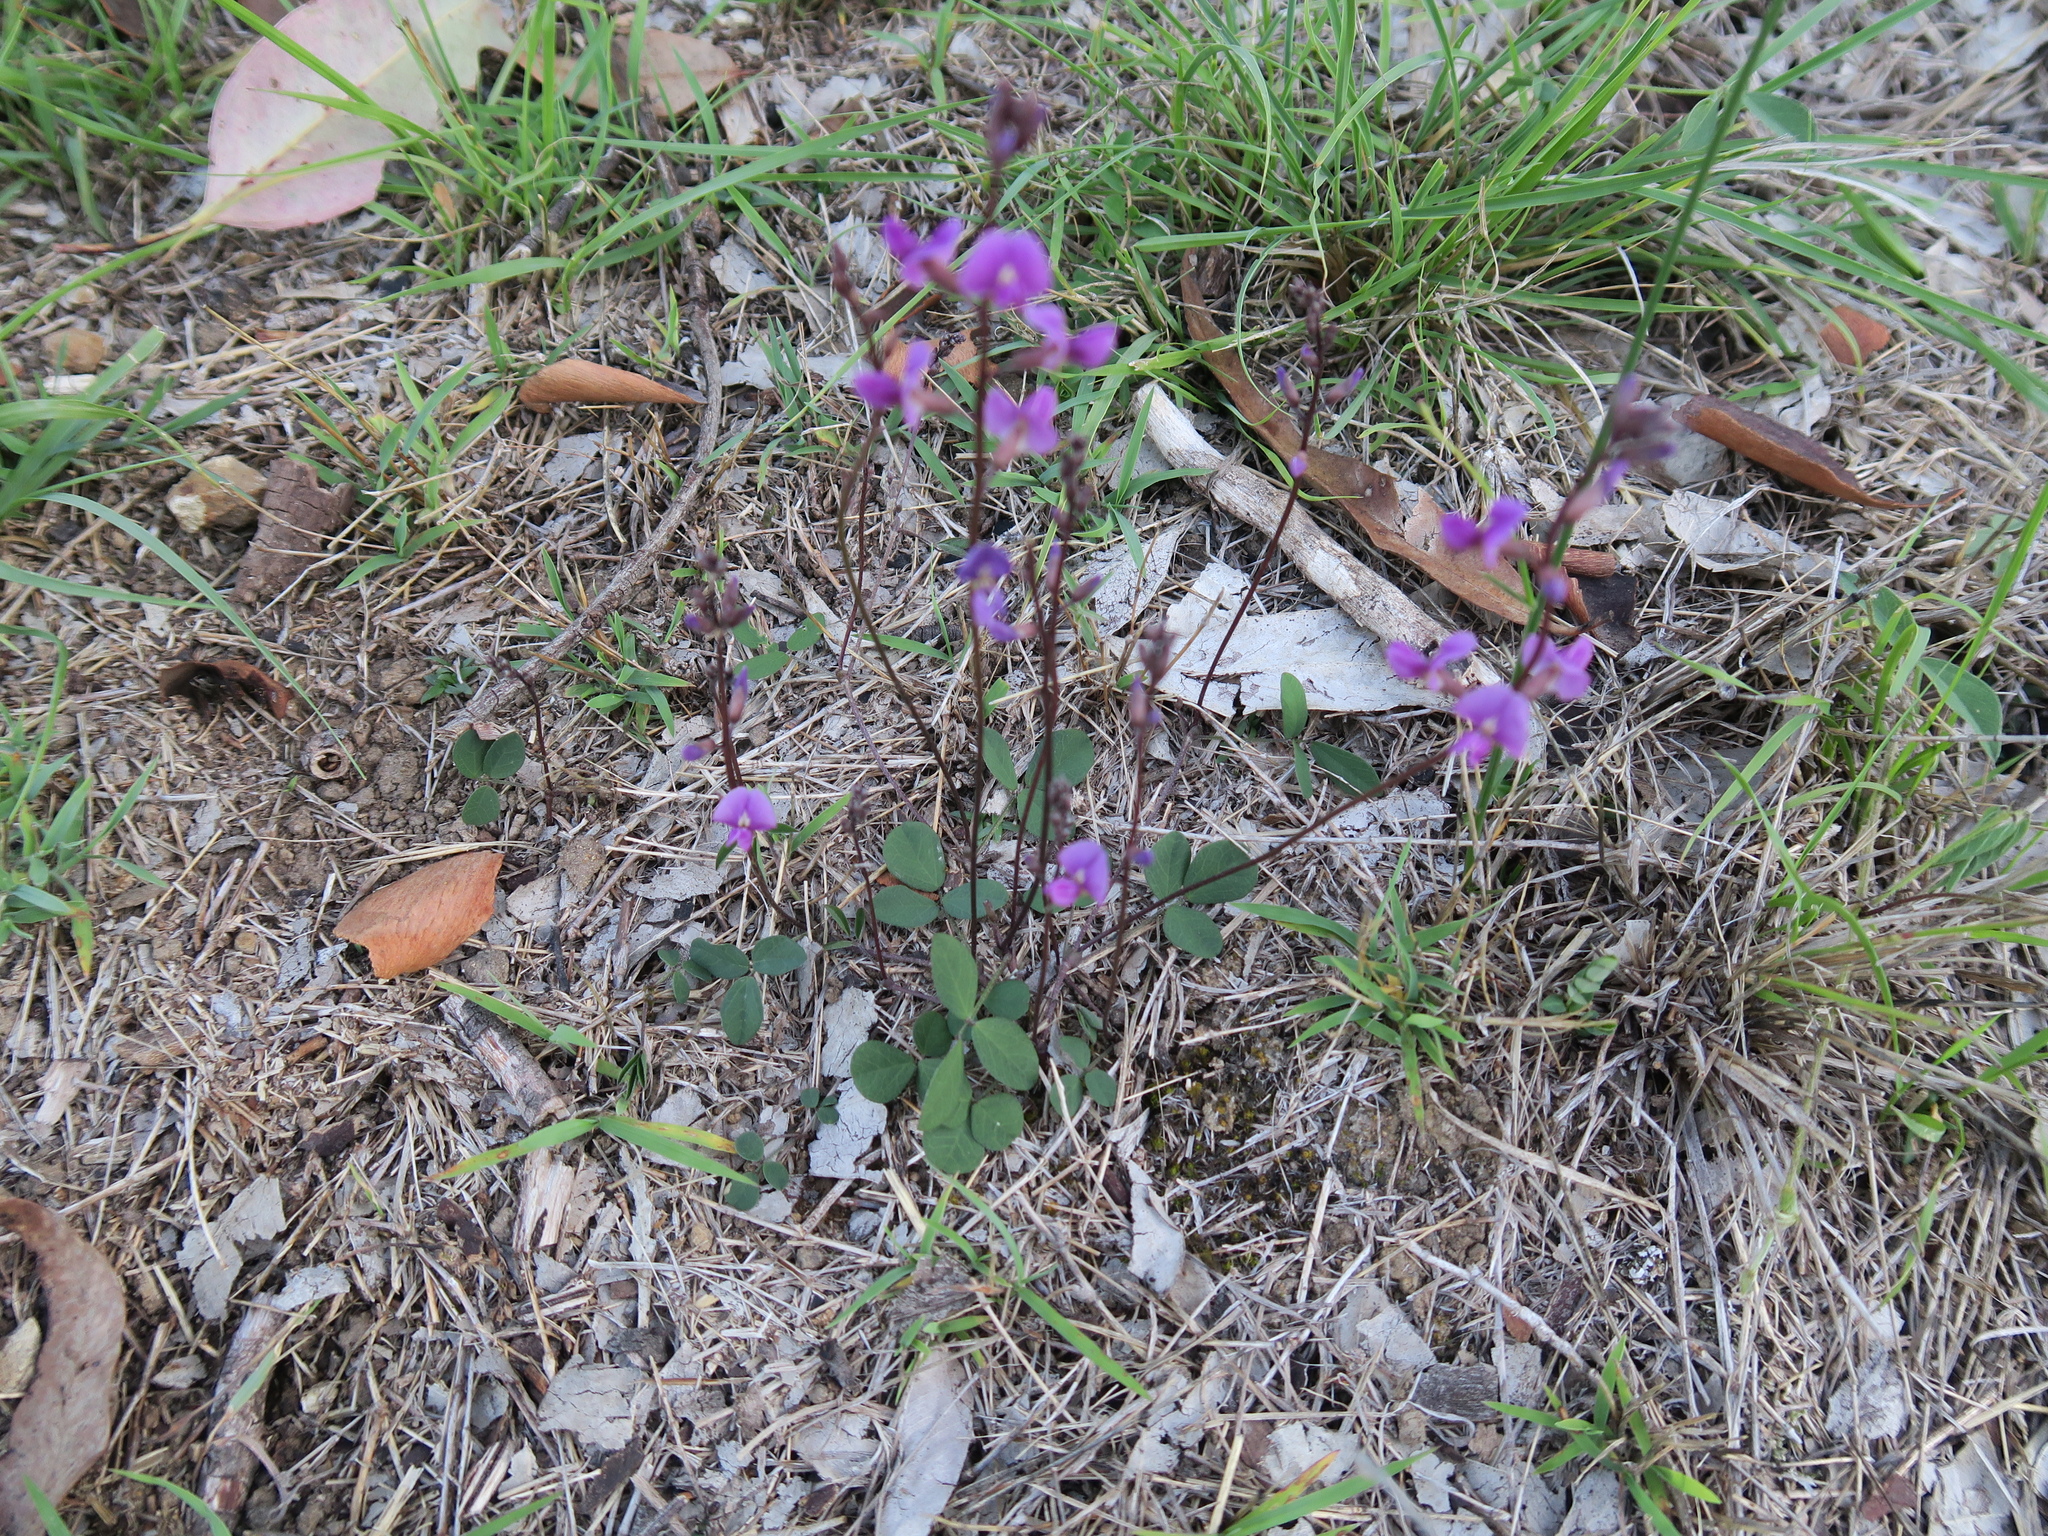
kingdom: Plantae
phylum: Tracheophyta
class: Magnoliopsida
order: Fabales
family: Fabaceae
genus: Glycine
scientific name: Glycine tabacina
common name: Pea glycine
